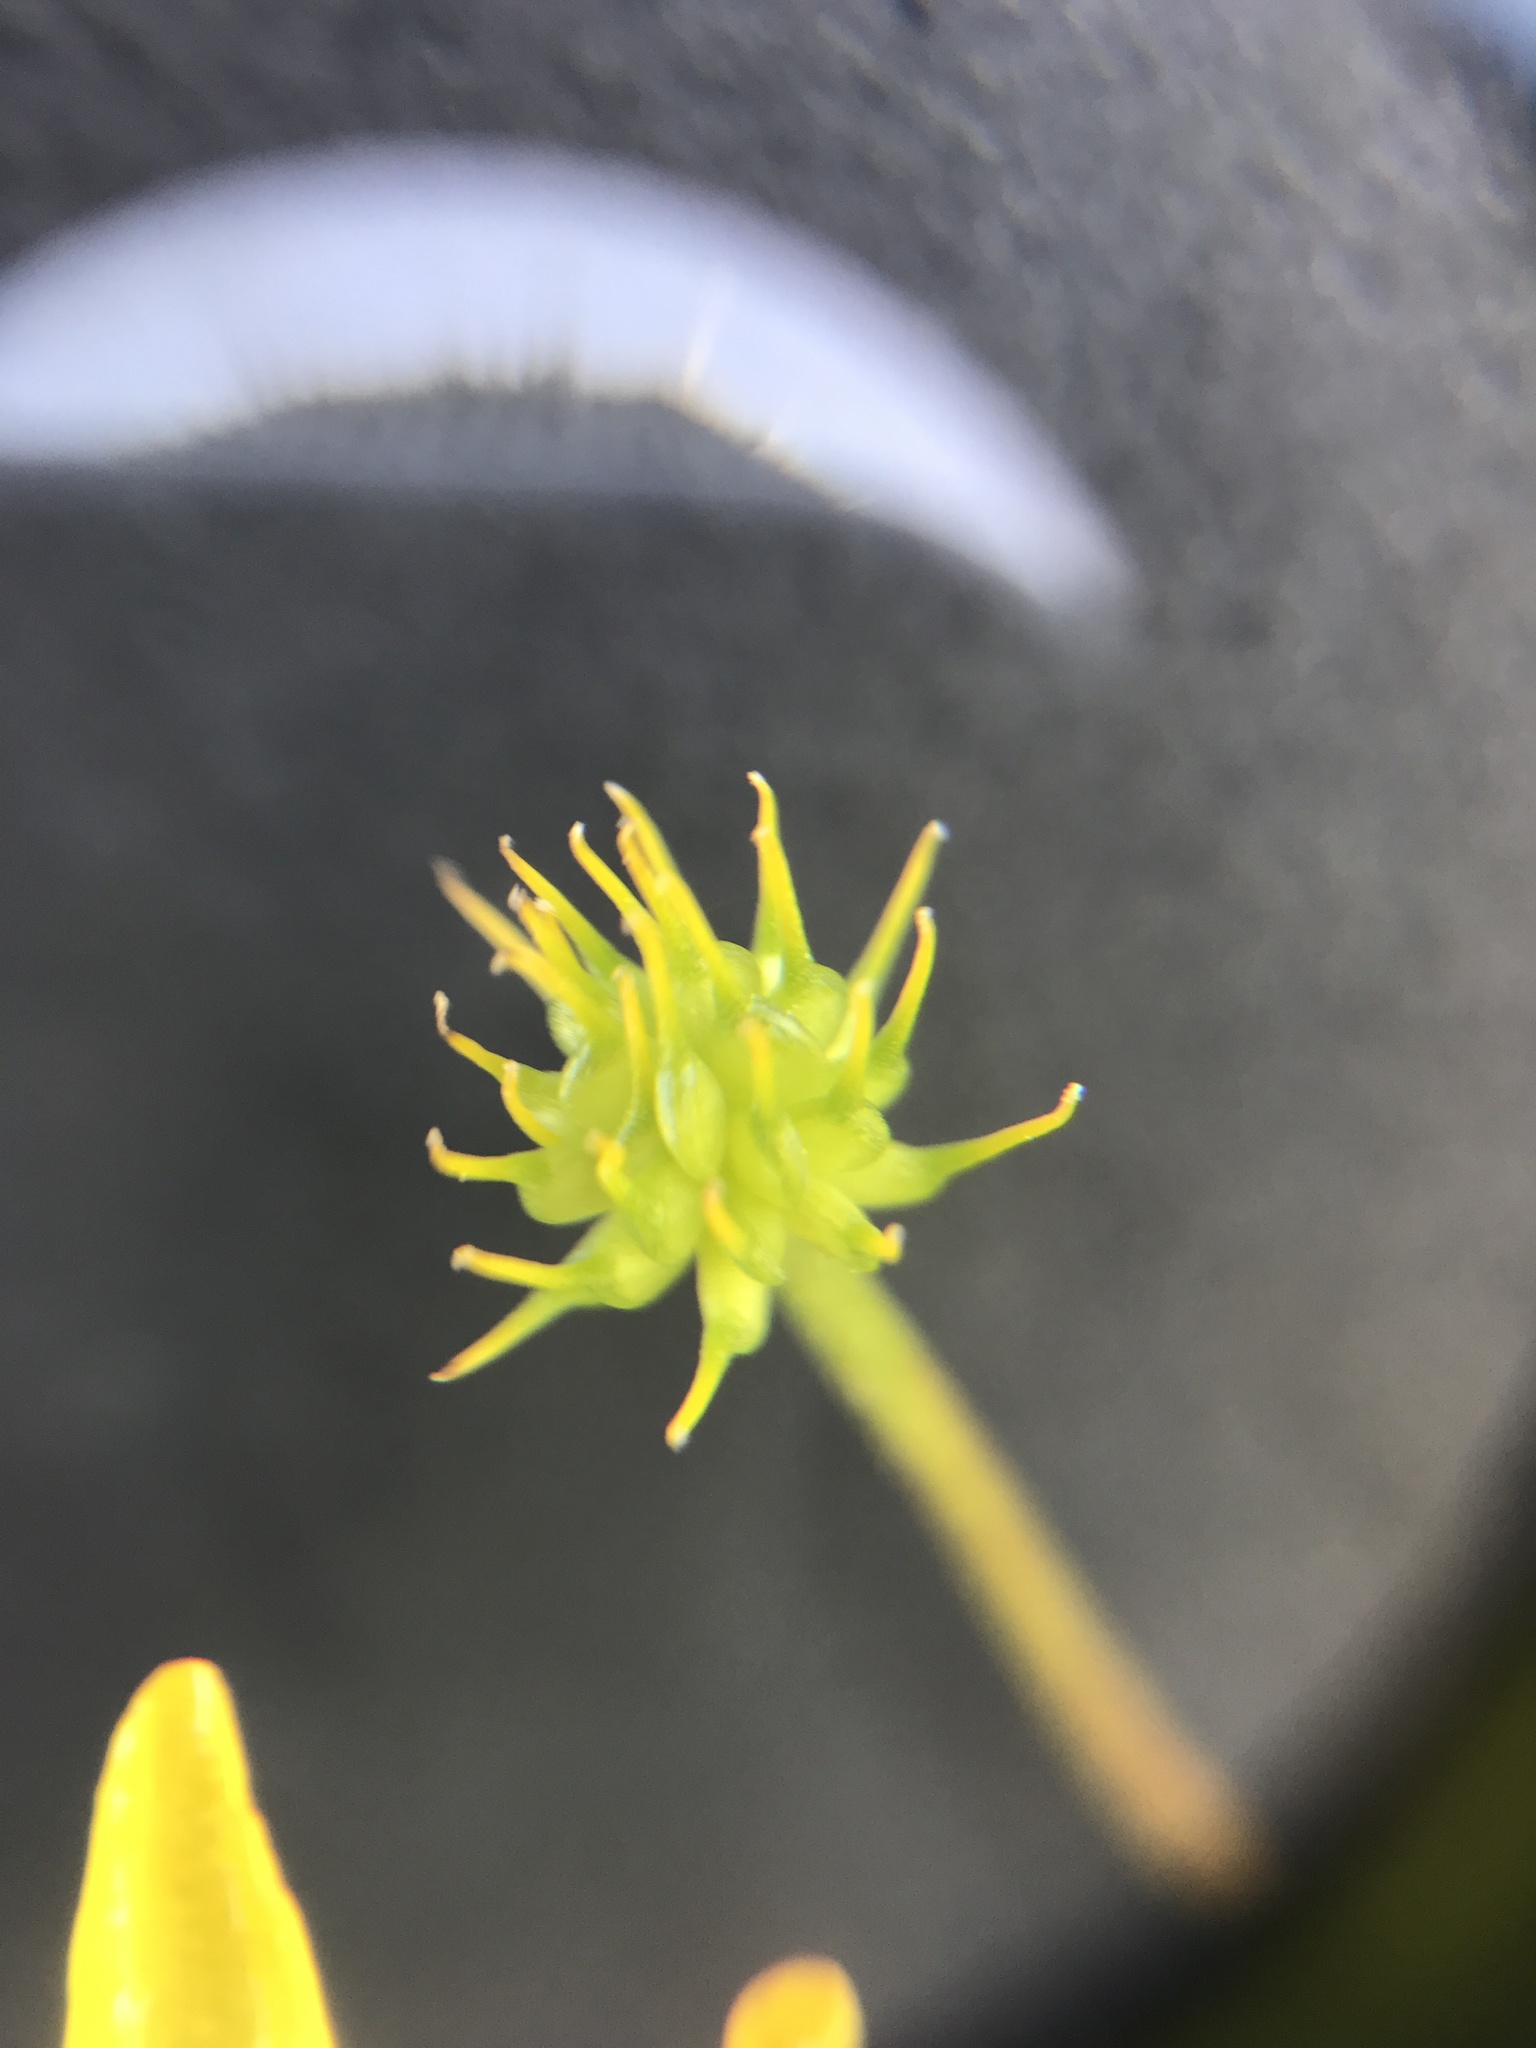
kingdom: Plantae
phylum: Tracheophyta
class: Magnoliopsida
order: Ranunculales
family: Ranunculaceae
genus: Ranunculus
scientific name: Ranunculus orthorhynchus
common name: Straight-beak buttercup
